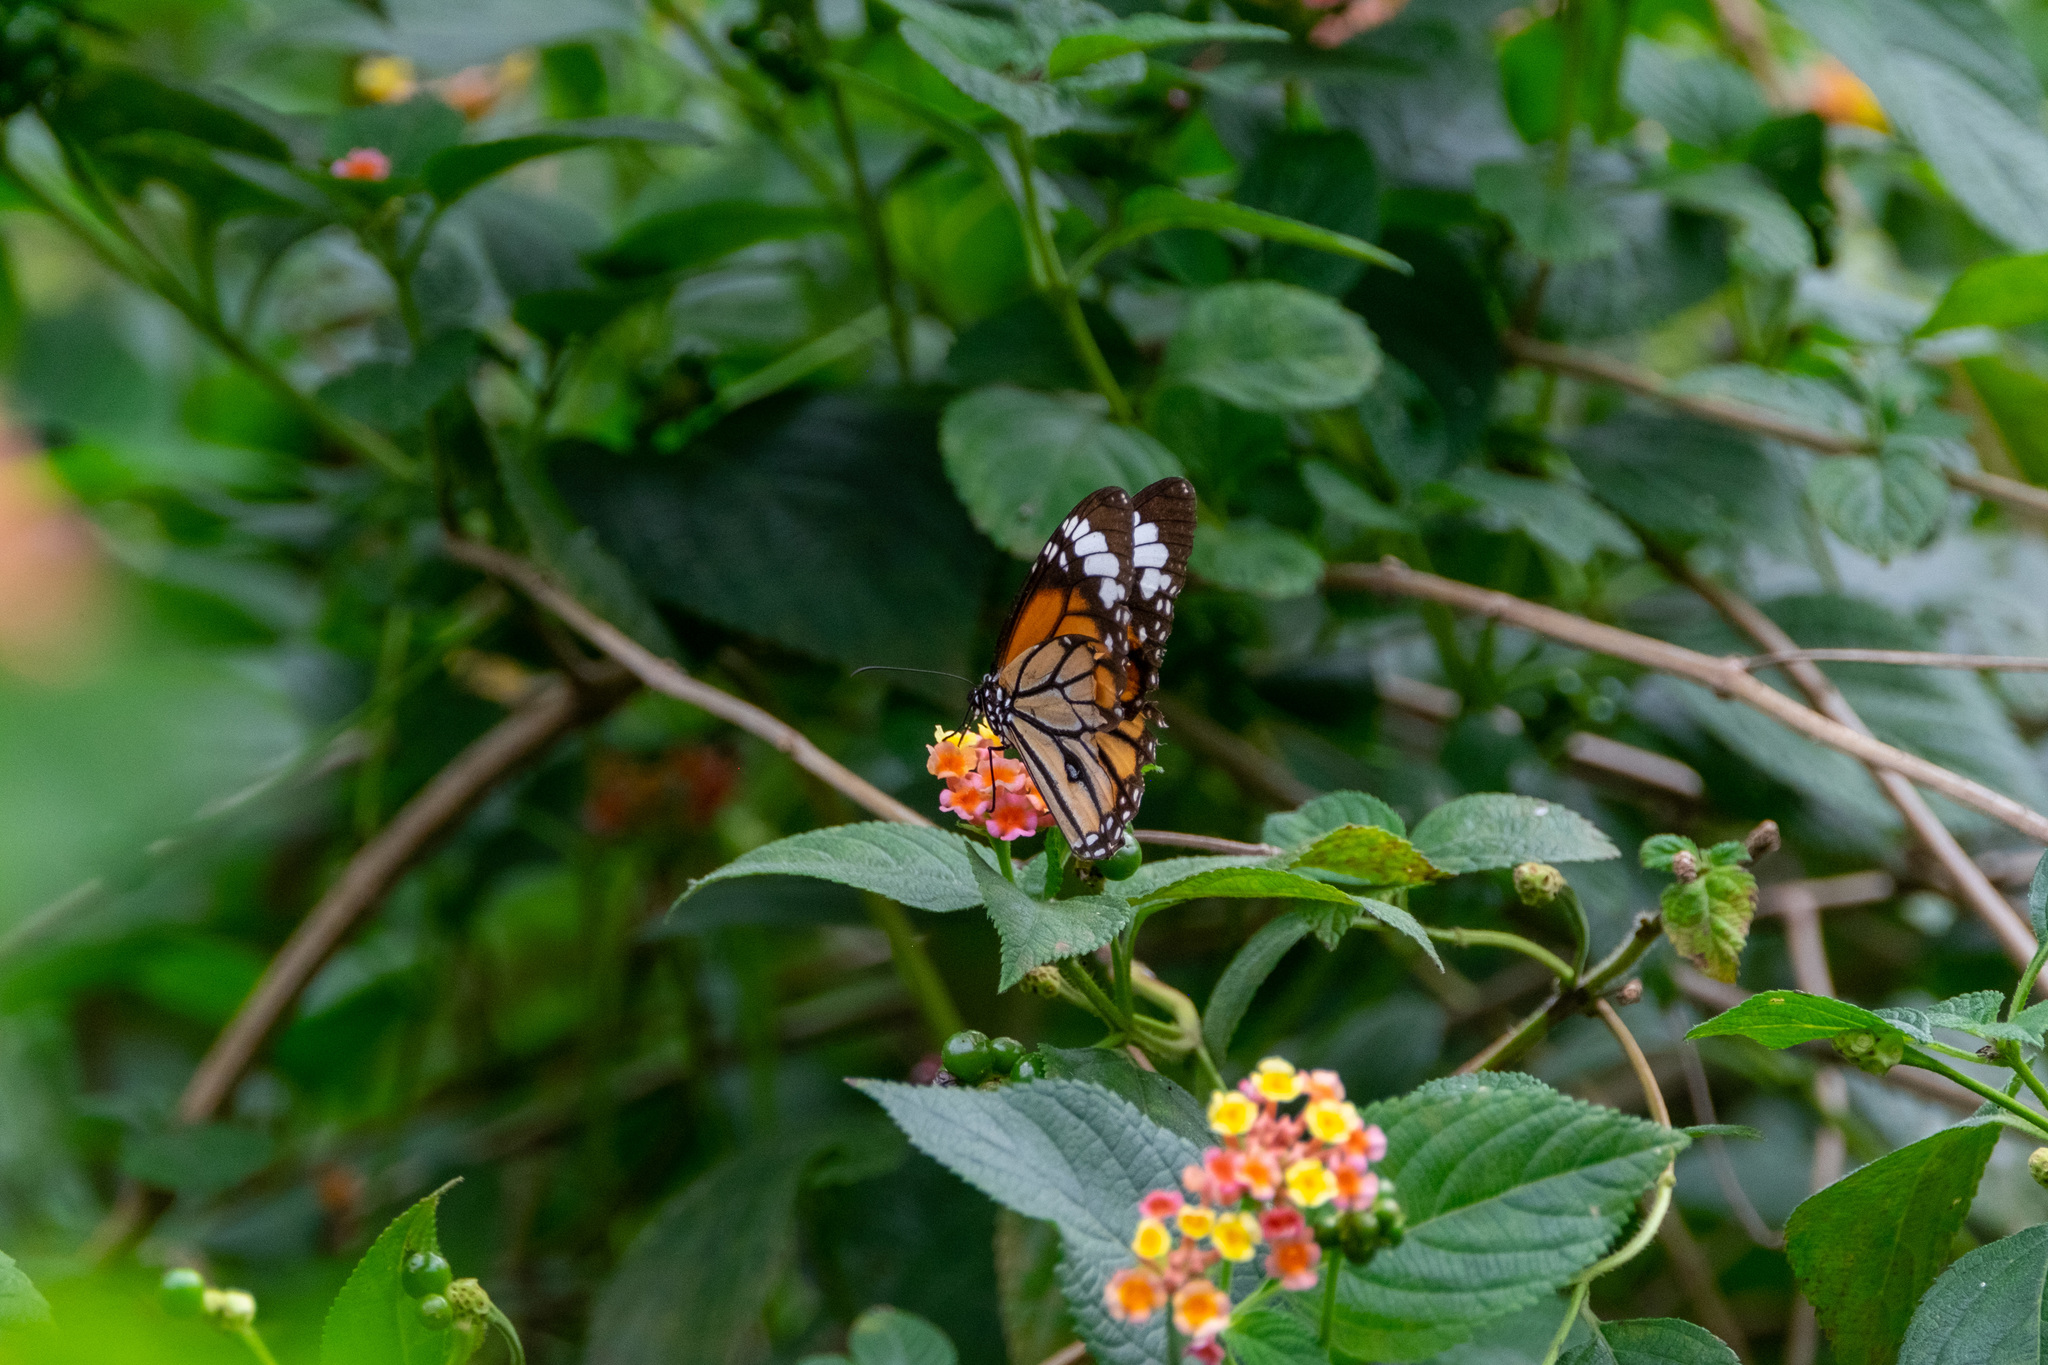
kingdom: Animalia
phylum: Arthropoda
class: Insecta
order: Lepidoptera
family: Nymphalidae
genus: Danaus
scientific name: Danaus genutia
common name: Common tiger butterfly
